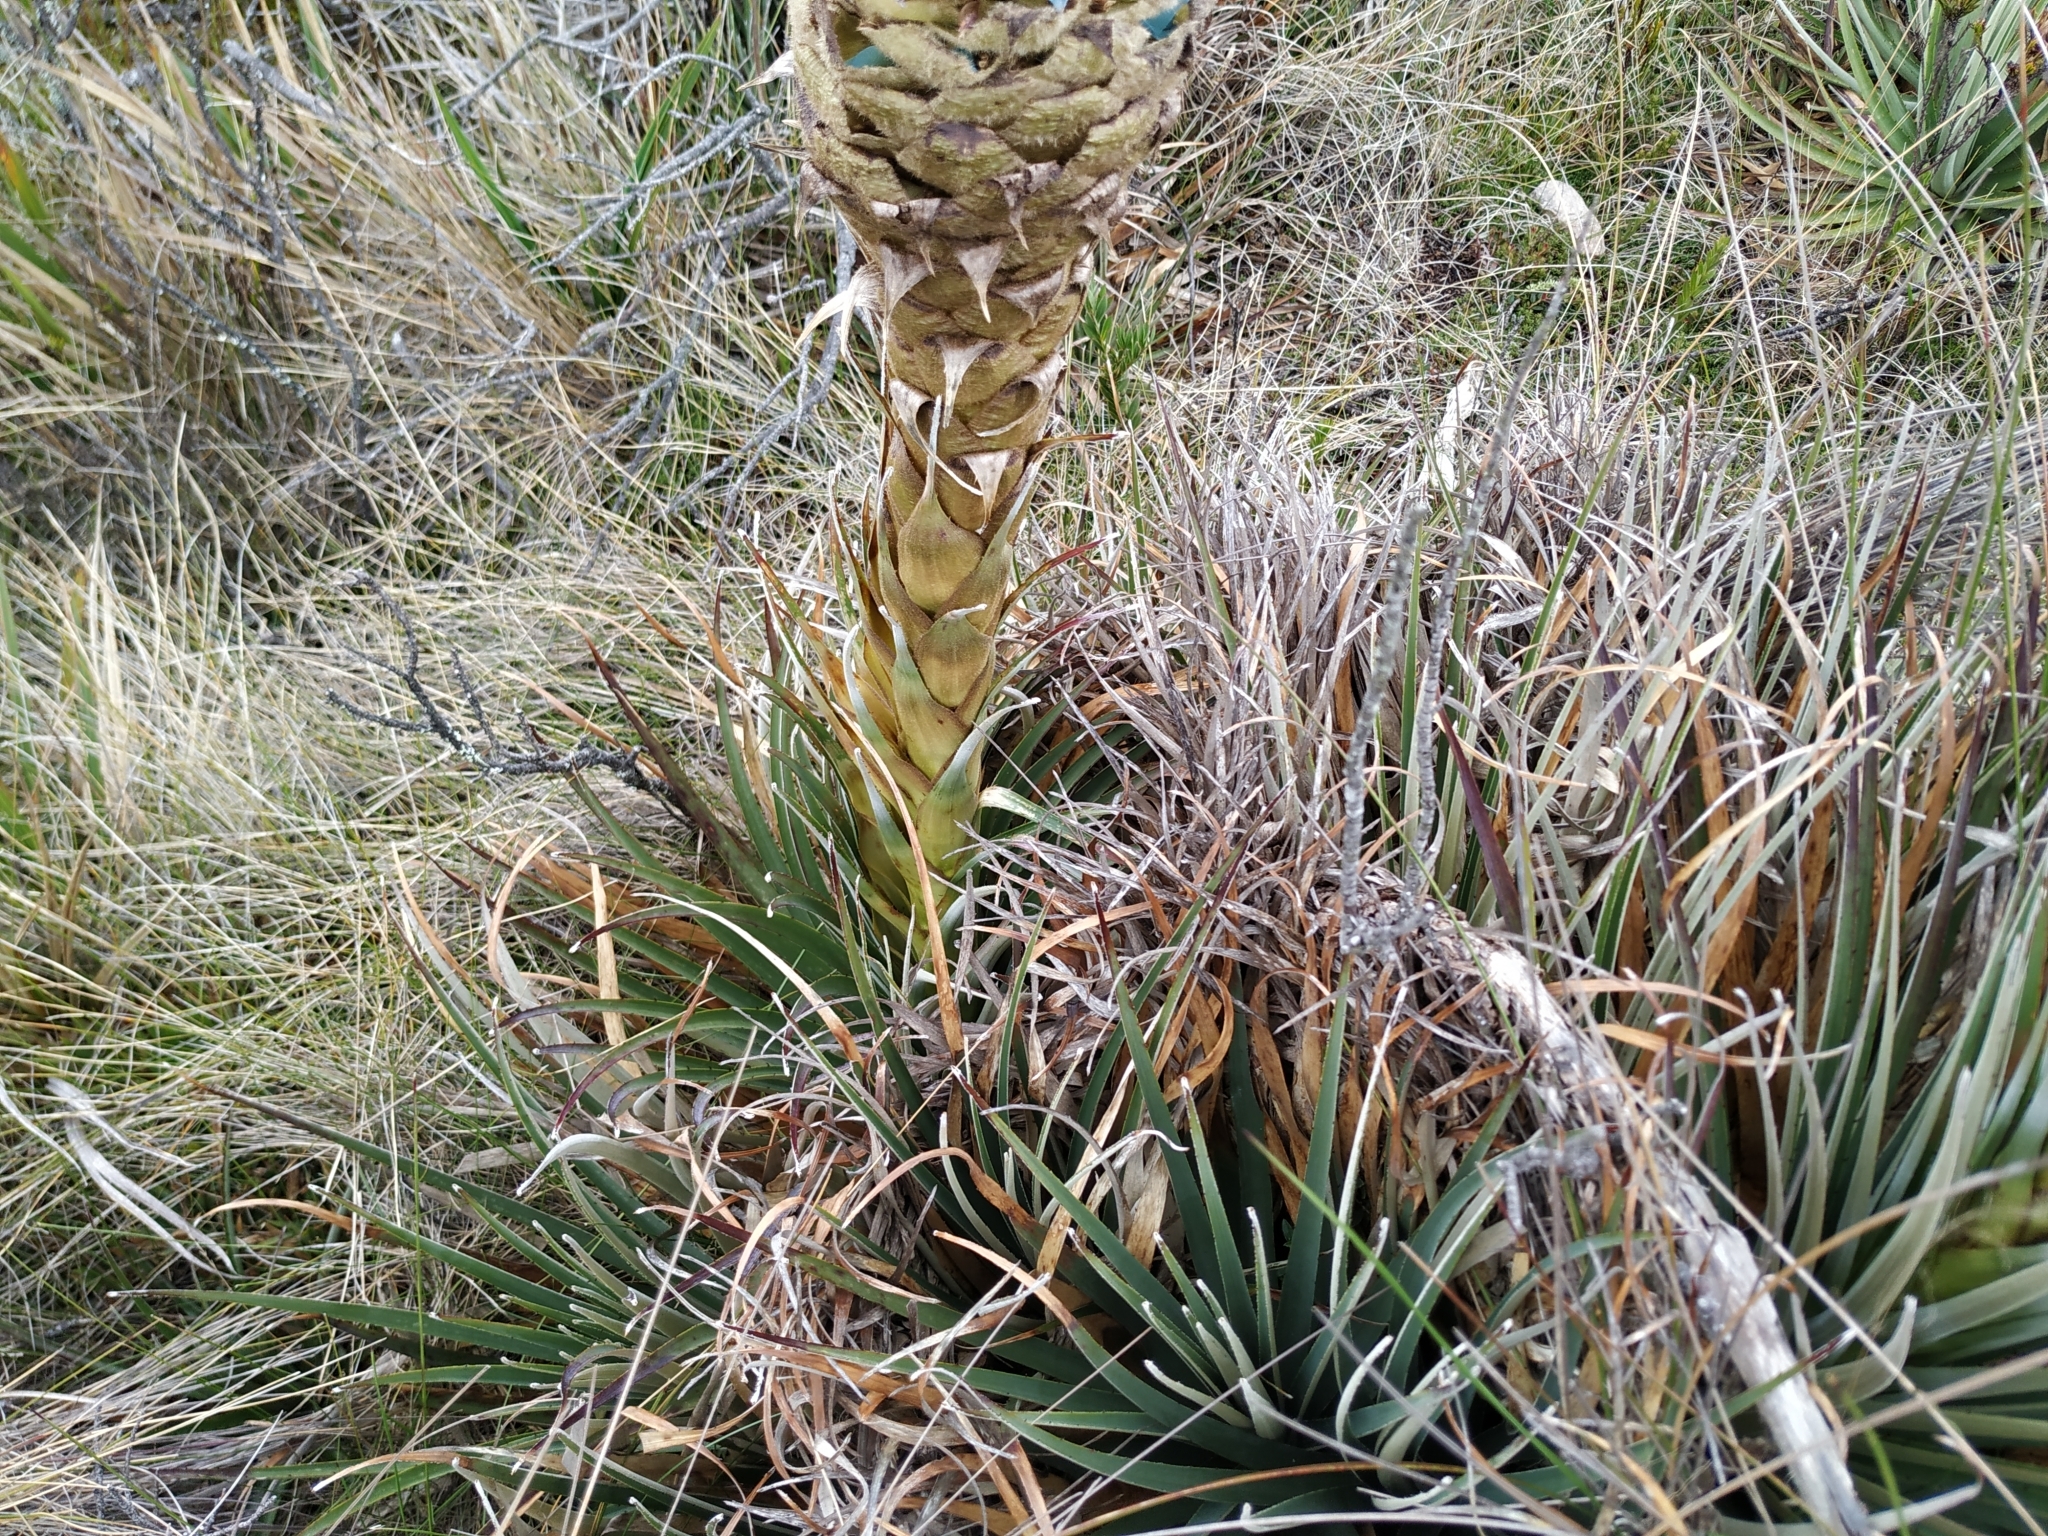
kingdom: Plantae
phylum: Tracheophyta
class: Liliopsida
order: Poales
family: Bromeliaceae
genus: Puya
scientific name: Puya boyacana
